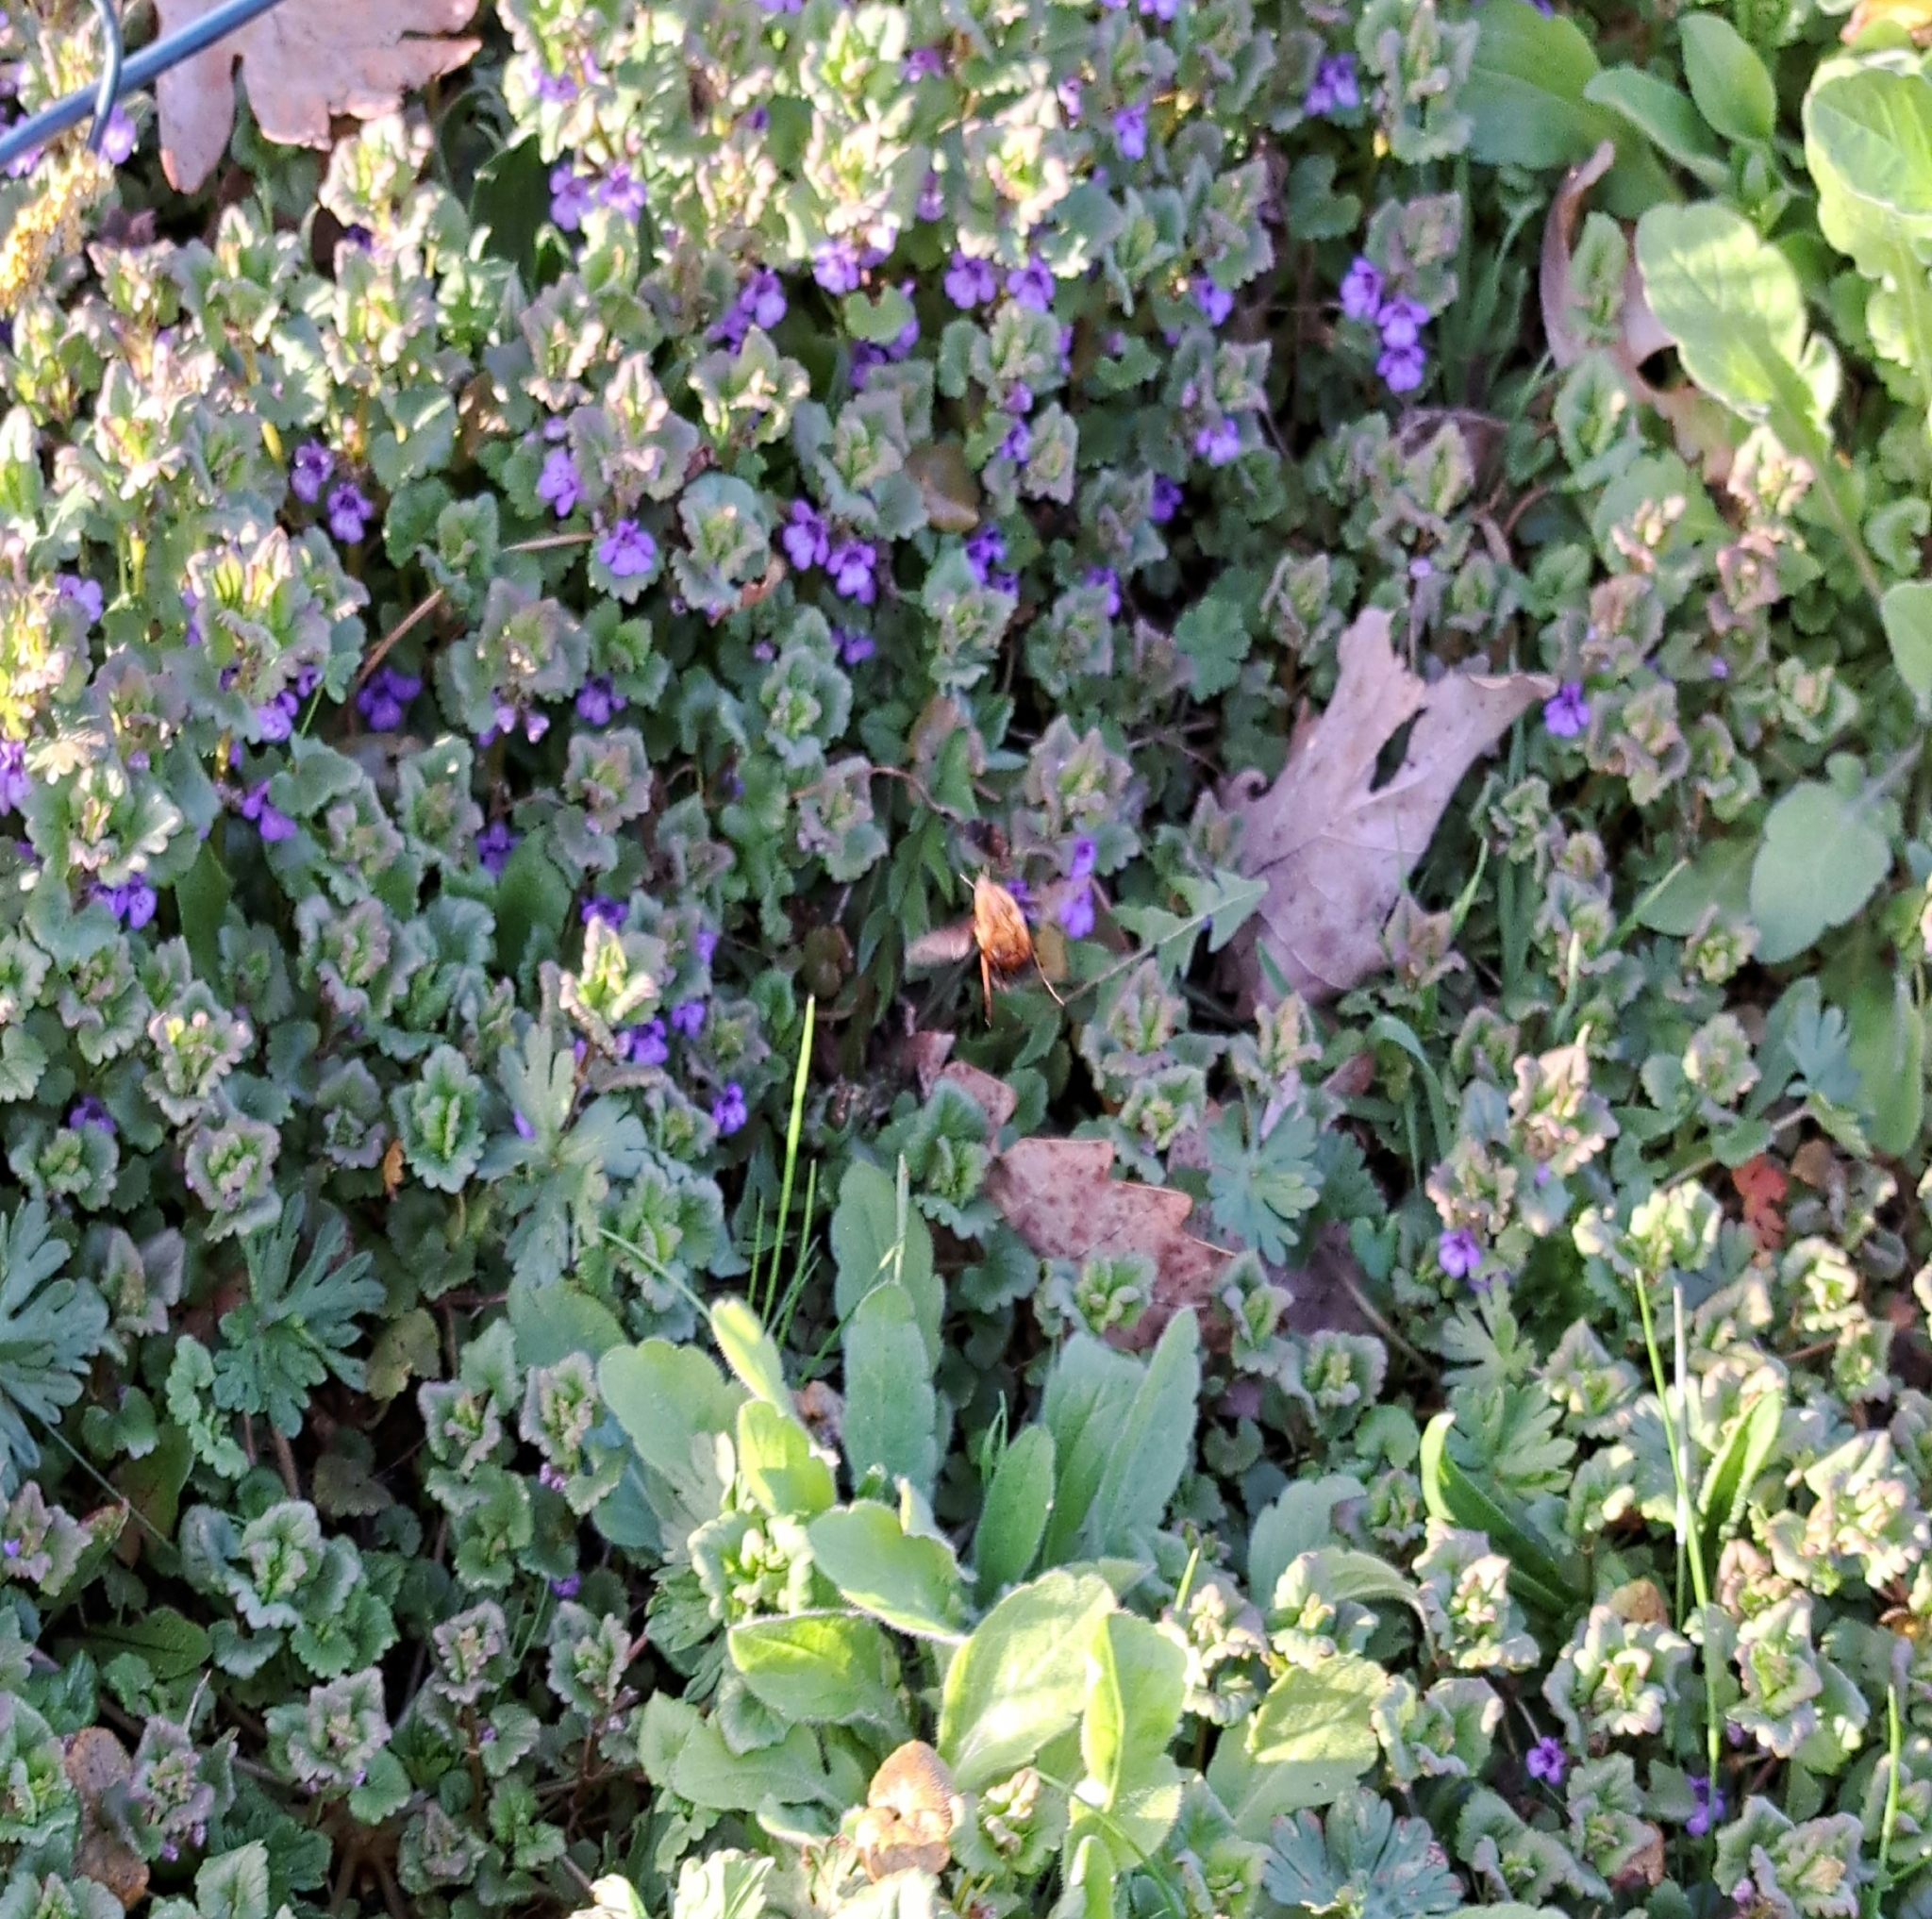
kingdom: Animalia
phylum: Arthropoda
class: Insecta
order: Diptera
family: Bombyliidae
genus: Bombylius
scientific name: Bombylius discolor
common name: Dotted bee-fly
